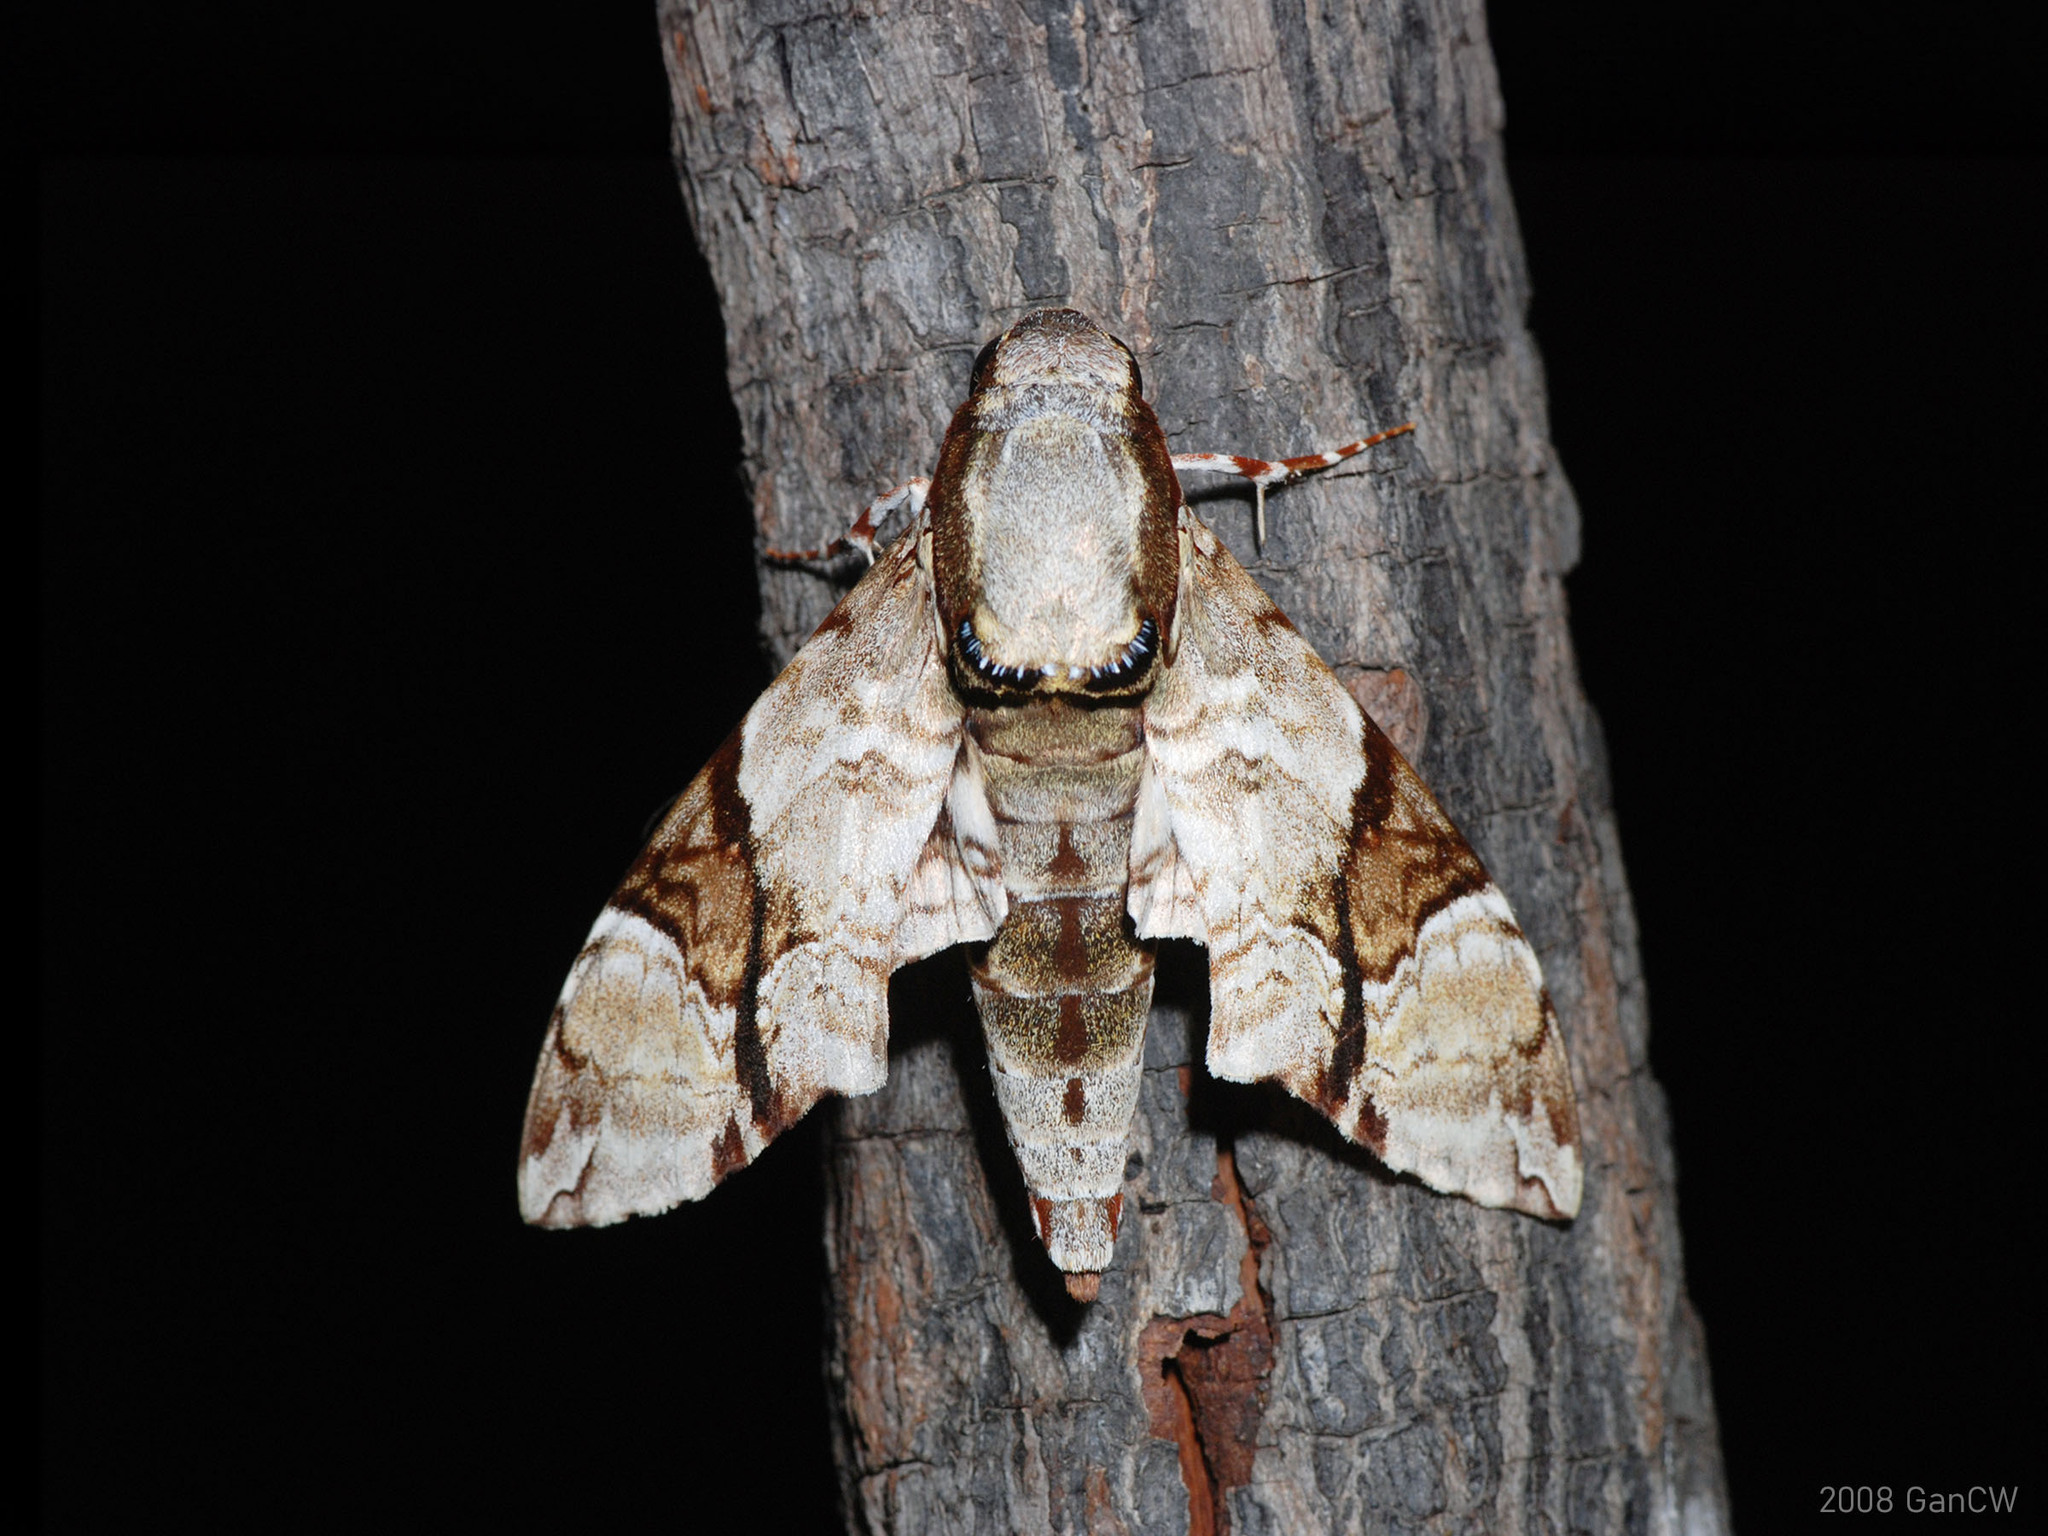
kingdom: Animalia
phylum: Arthropoda
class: Insecta
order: Lepidoptera
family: Sphingidae
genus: Megacorma
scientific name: Megacorma obliqua
